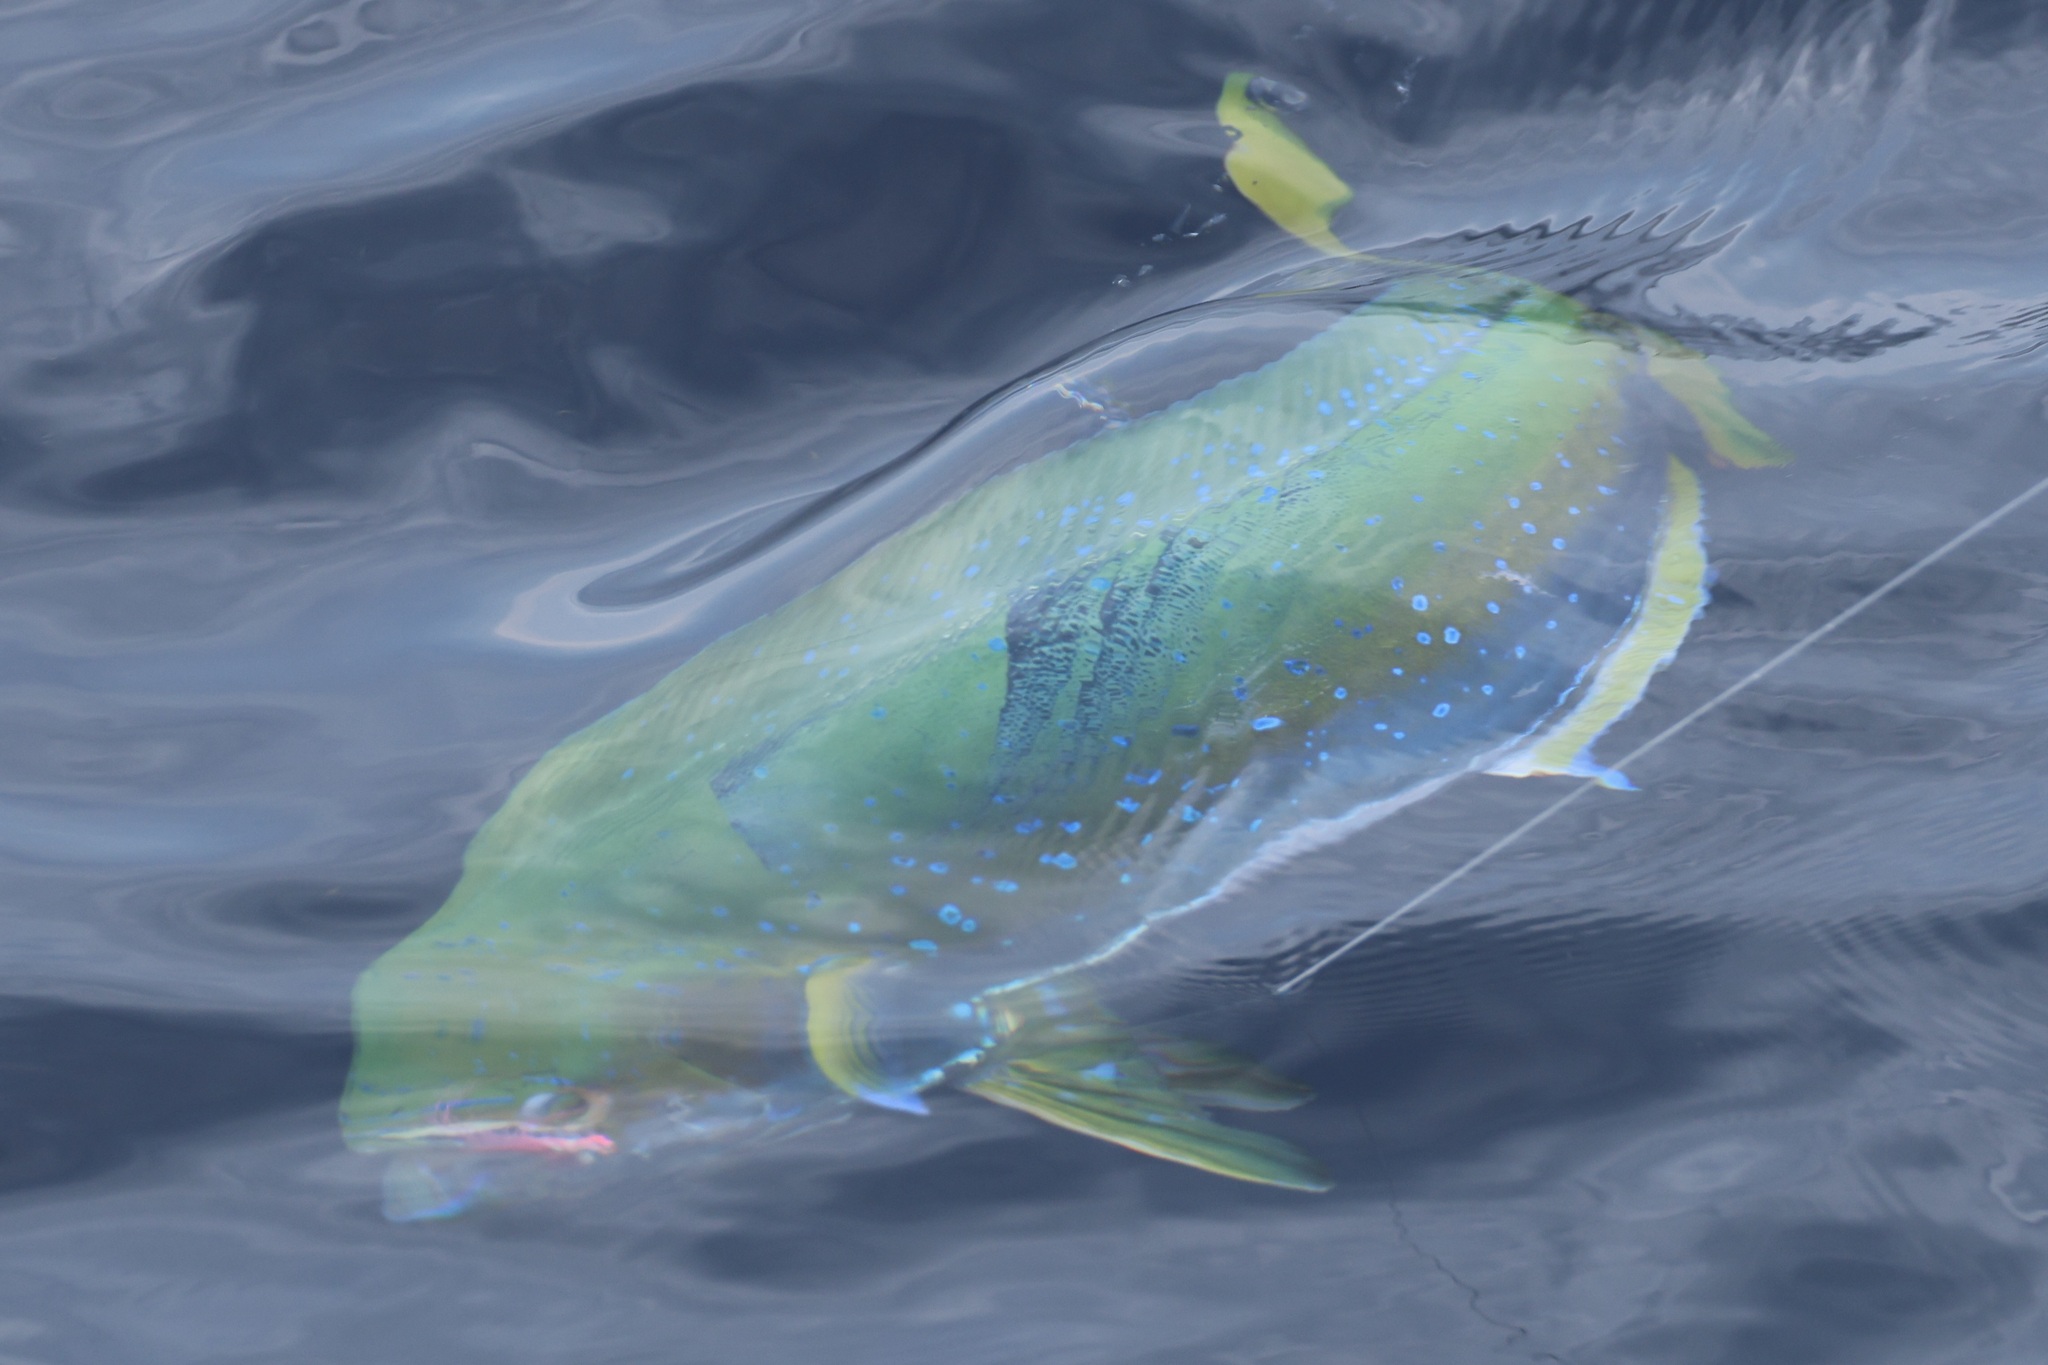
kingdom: Animalia
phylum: Chordata
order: Perciformes
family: Coryphaenidae
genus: Coryphaena
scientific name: Coryphaena hippurus
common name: Dolphin
